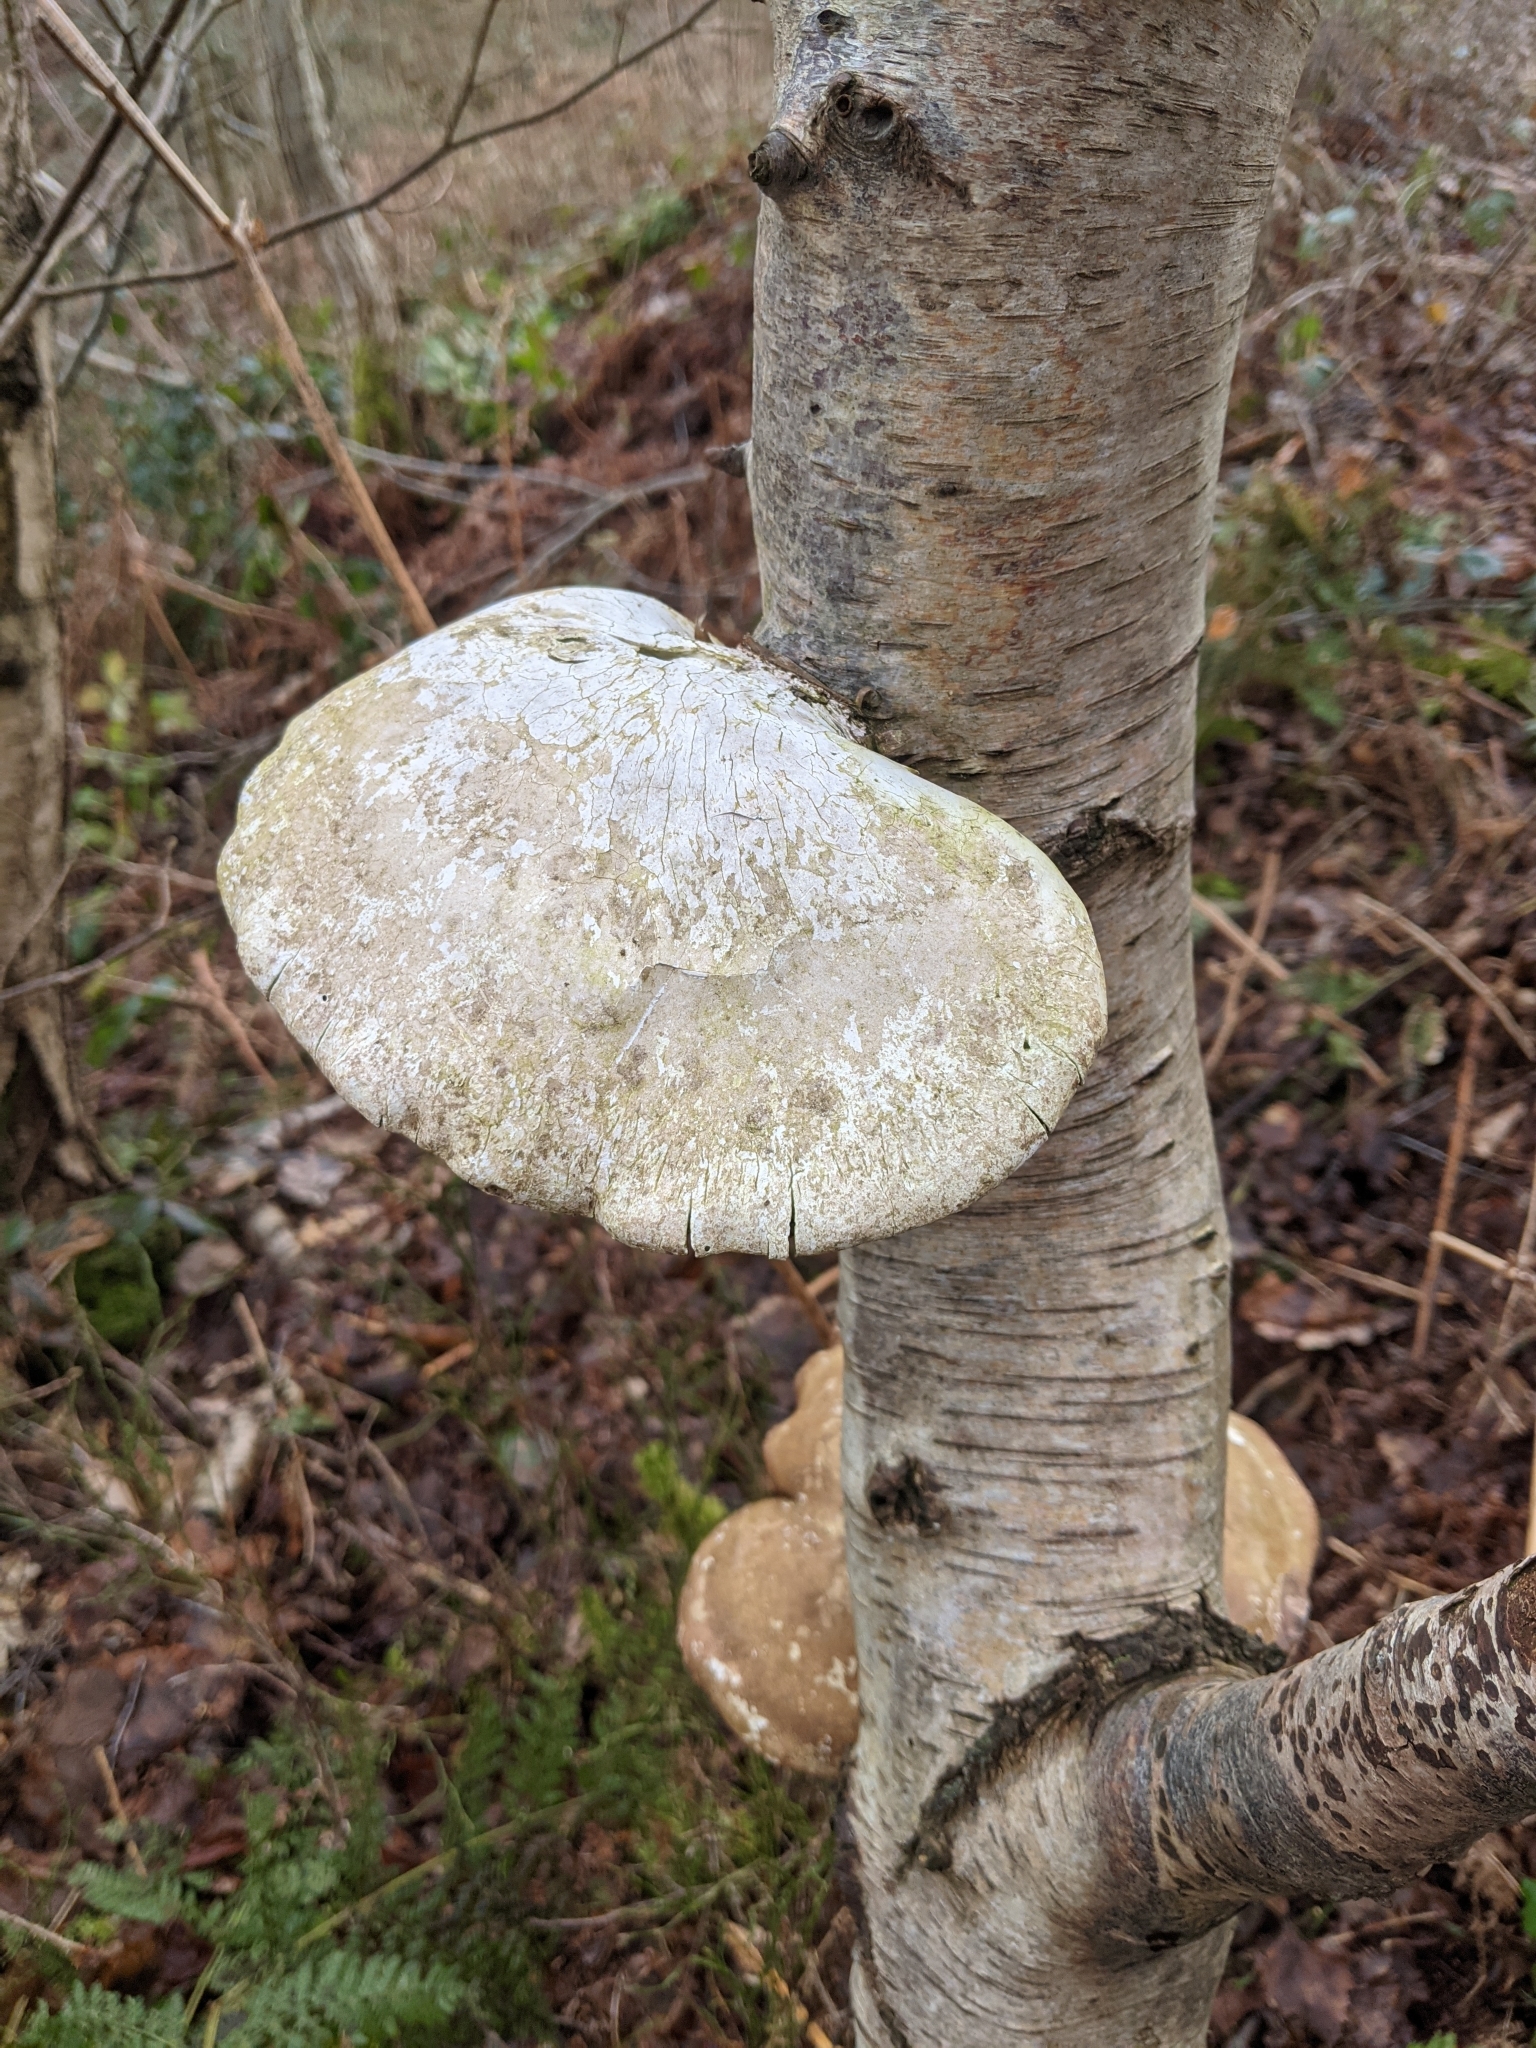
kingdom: Fungi
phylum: Basidiomycota
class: Agaricomycetes
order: Polyporales
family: Fomitopsidaceae
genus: Fomitopsis
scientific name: Fomitopsis betulina
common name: Birch polypore
